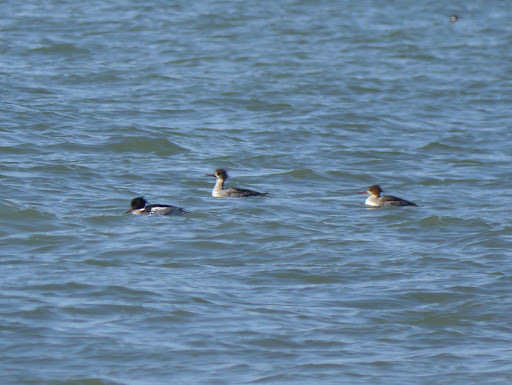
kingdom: Animalia
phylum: Chordata
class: Aves
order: Anseriformes
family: Anatidae
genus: Mergus
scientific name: Mergus serrator
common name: Red-breasted merganser
